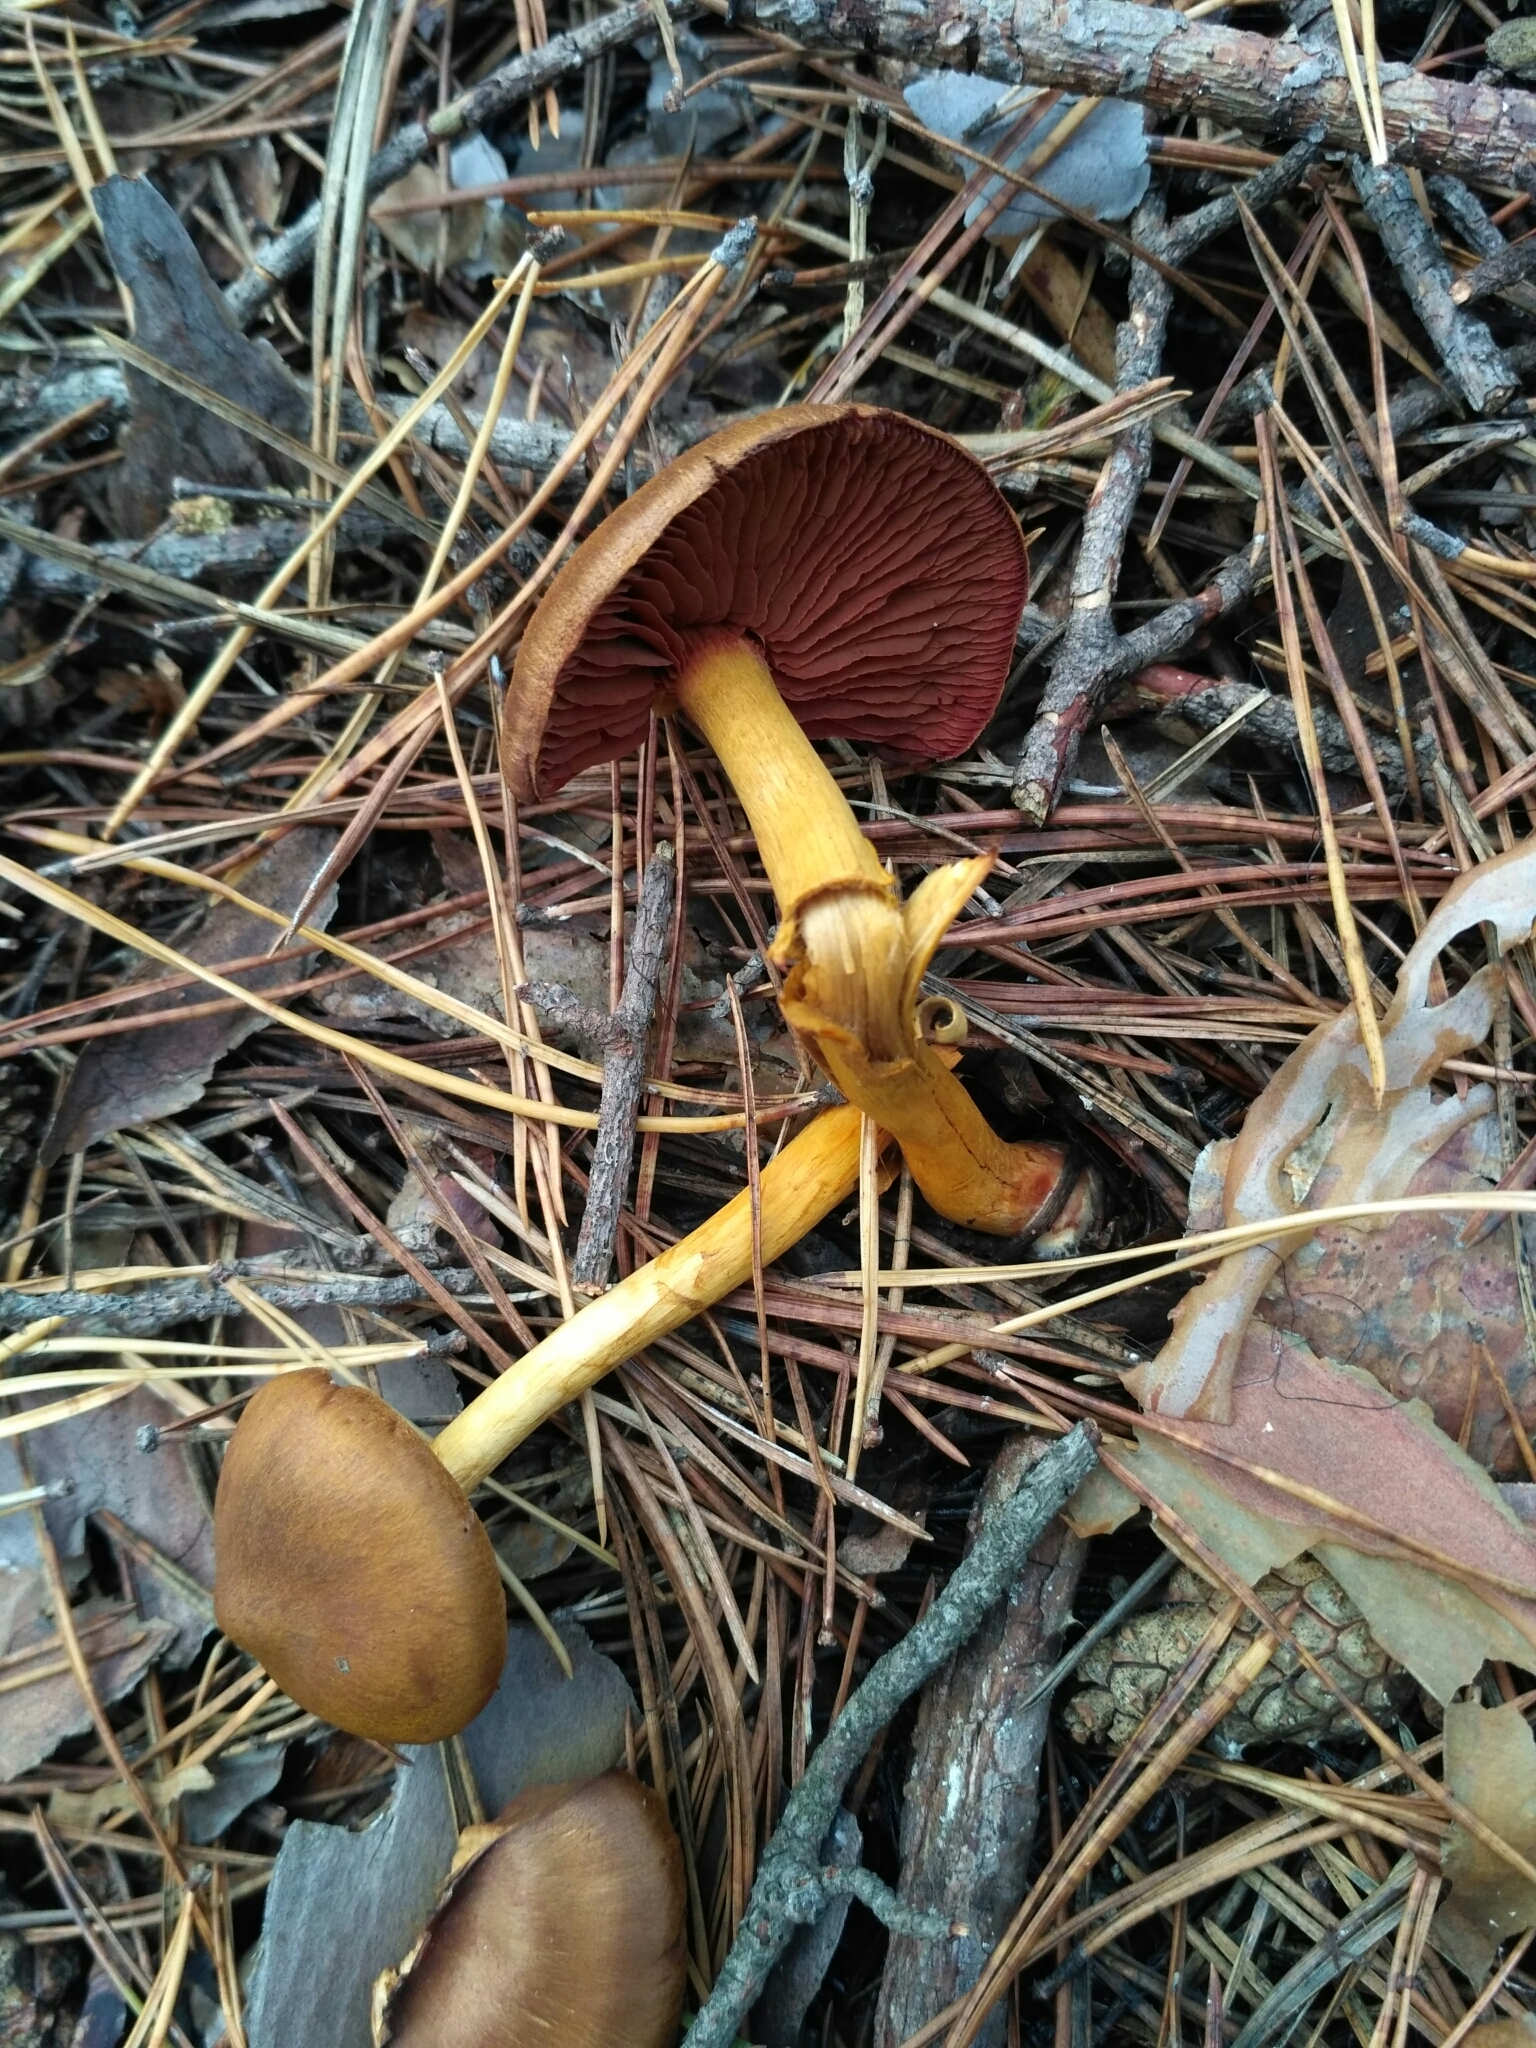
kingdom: Fungi
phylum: Basidiomycota
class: Agaricomycetes
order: Agaricales
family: Cortinariaceae
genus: Cortinarius
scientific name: Cortinarius semisanguineus
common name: Surprise webcap
